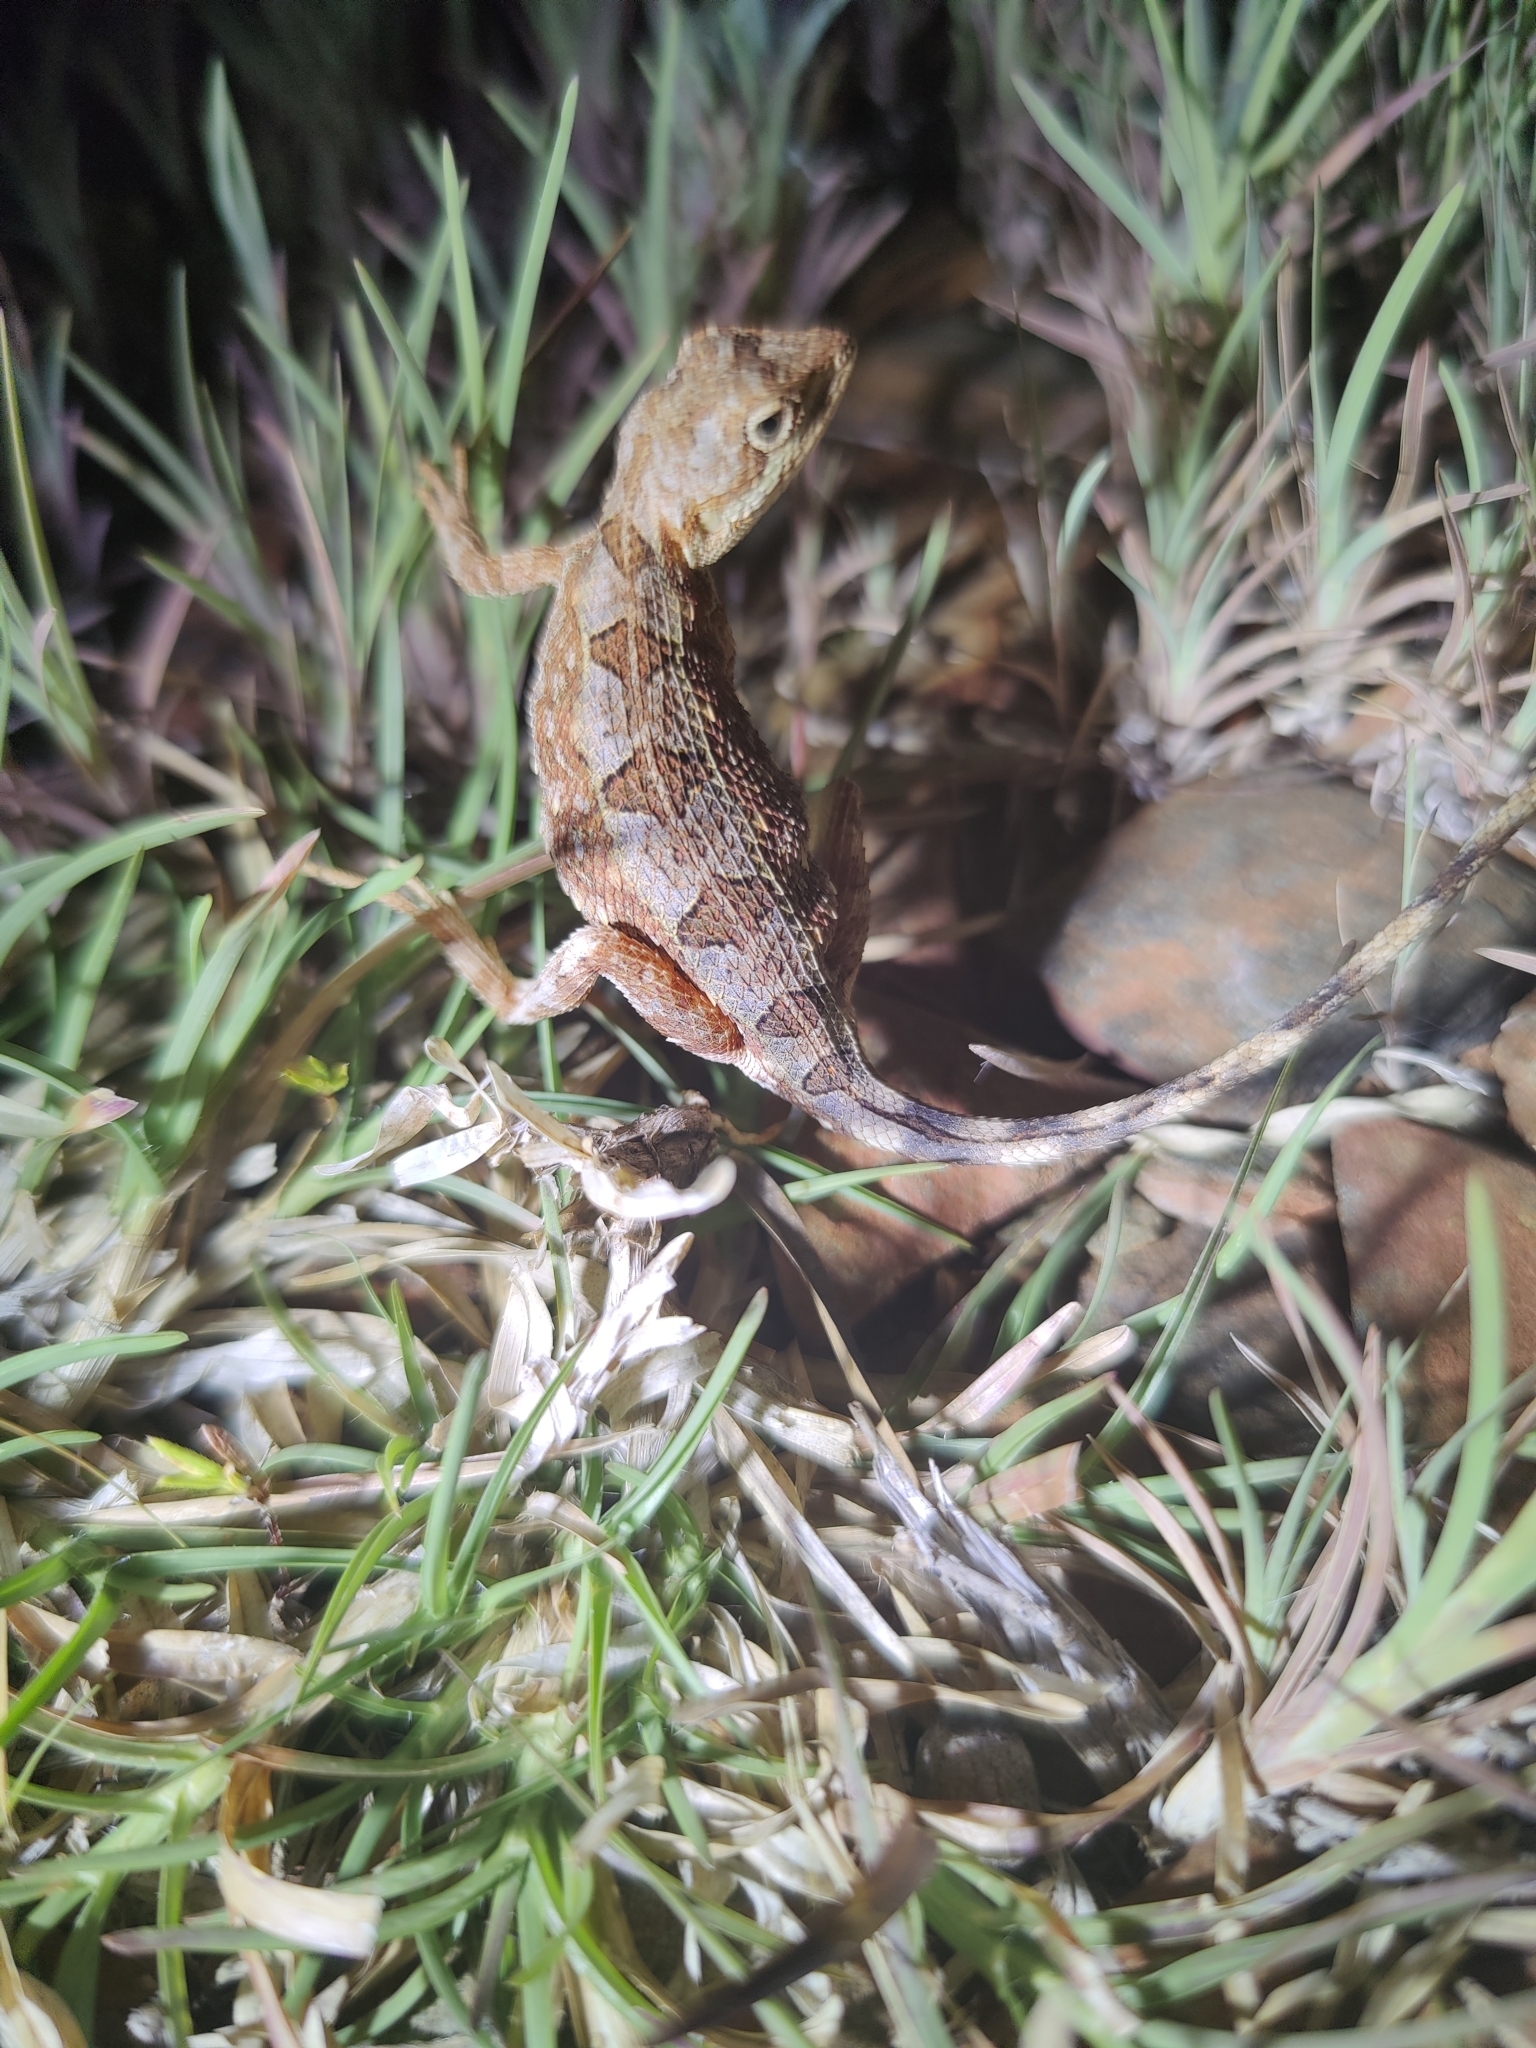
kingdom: Animalia
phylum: Chordata
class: Squamata
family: Agamidae
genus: Sitana
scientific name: Sitana ponticeriana
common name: Pondichéry fan throated lizard
